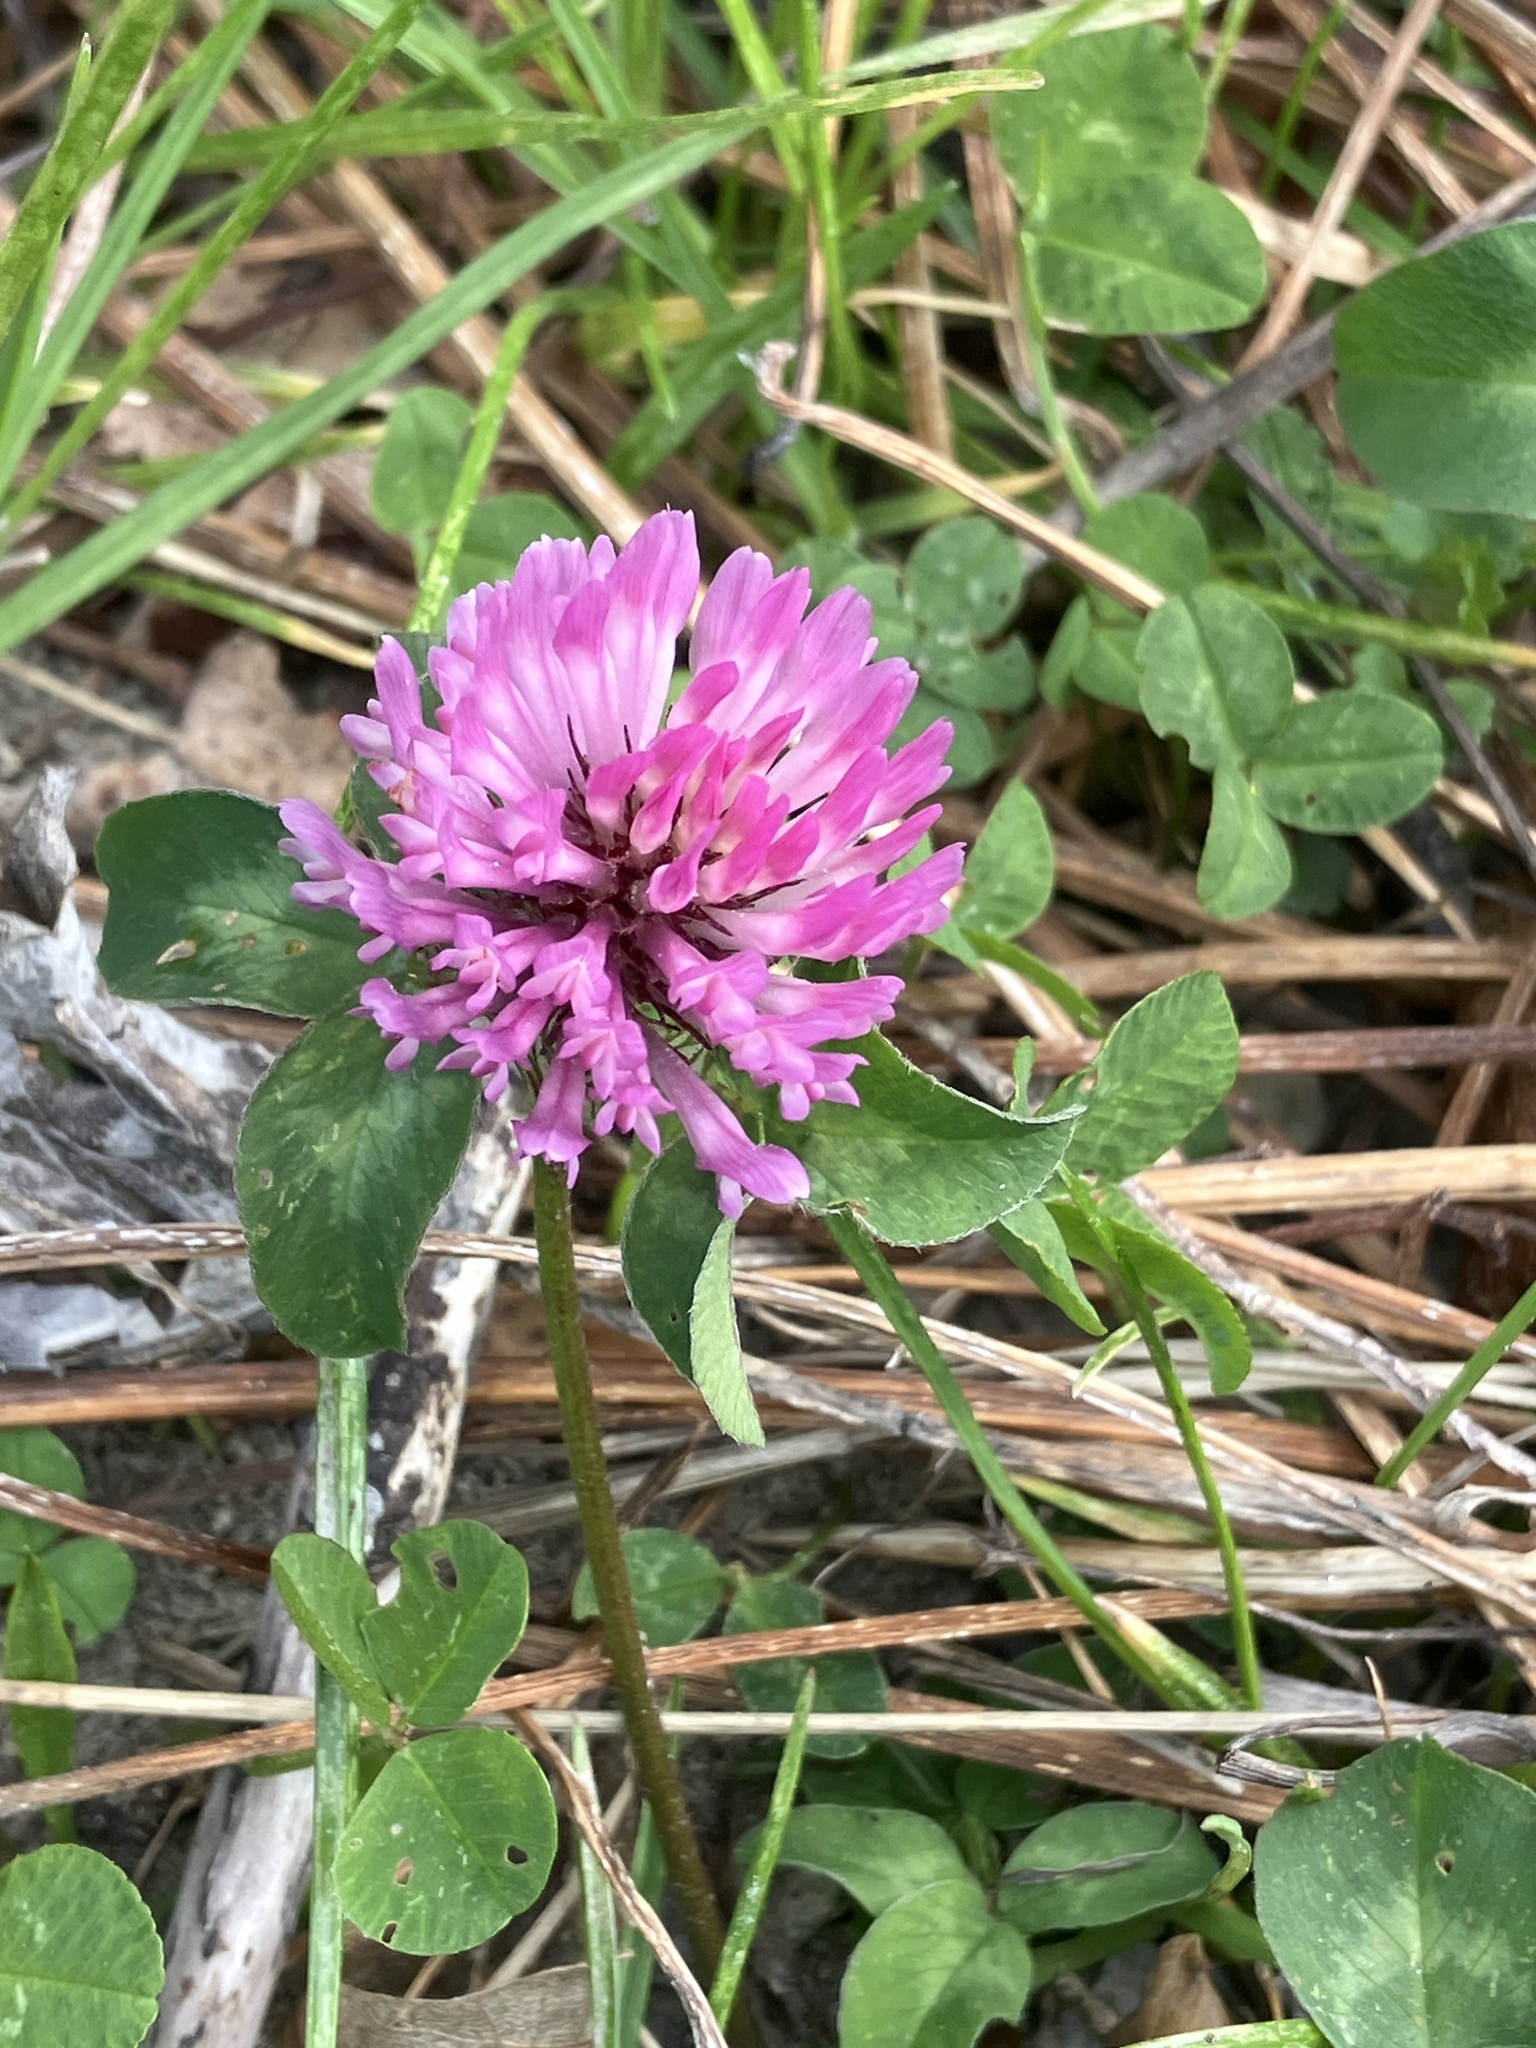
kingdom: Plantae
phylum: Tracheophyta
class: Magnoliopsida
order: Fabales
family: Fabaceae
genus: Trifolium
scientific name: Trifolium pratense
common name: Red clover
